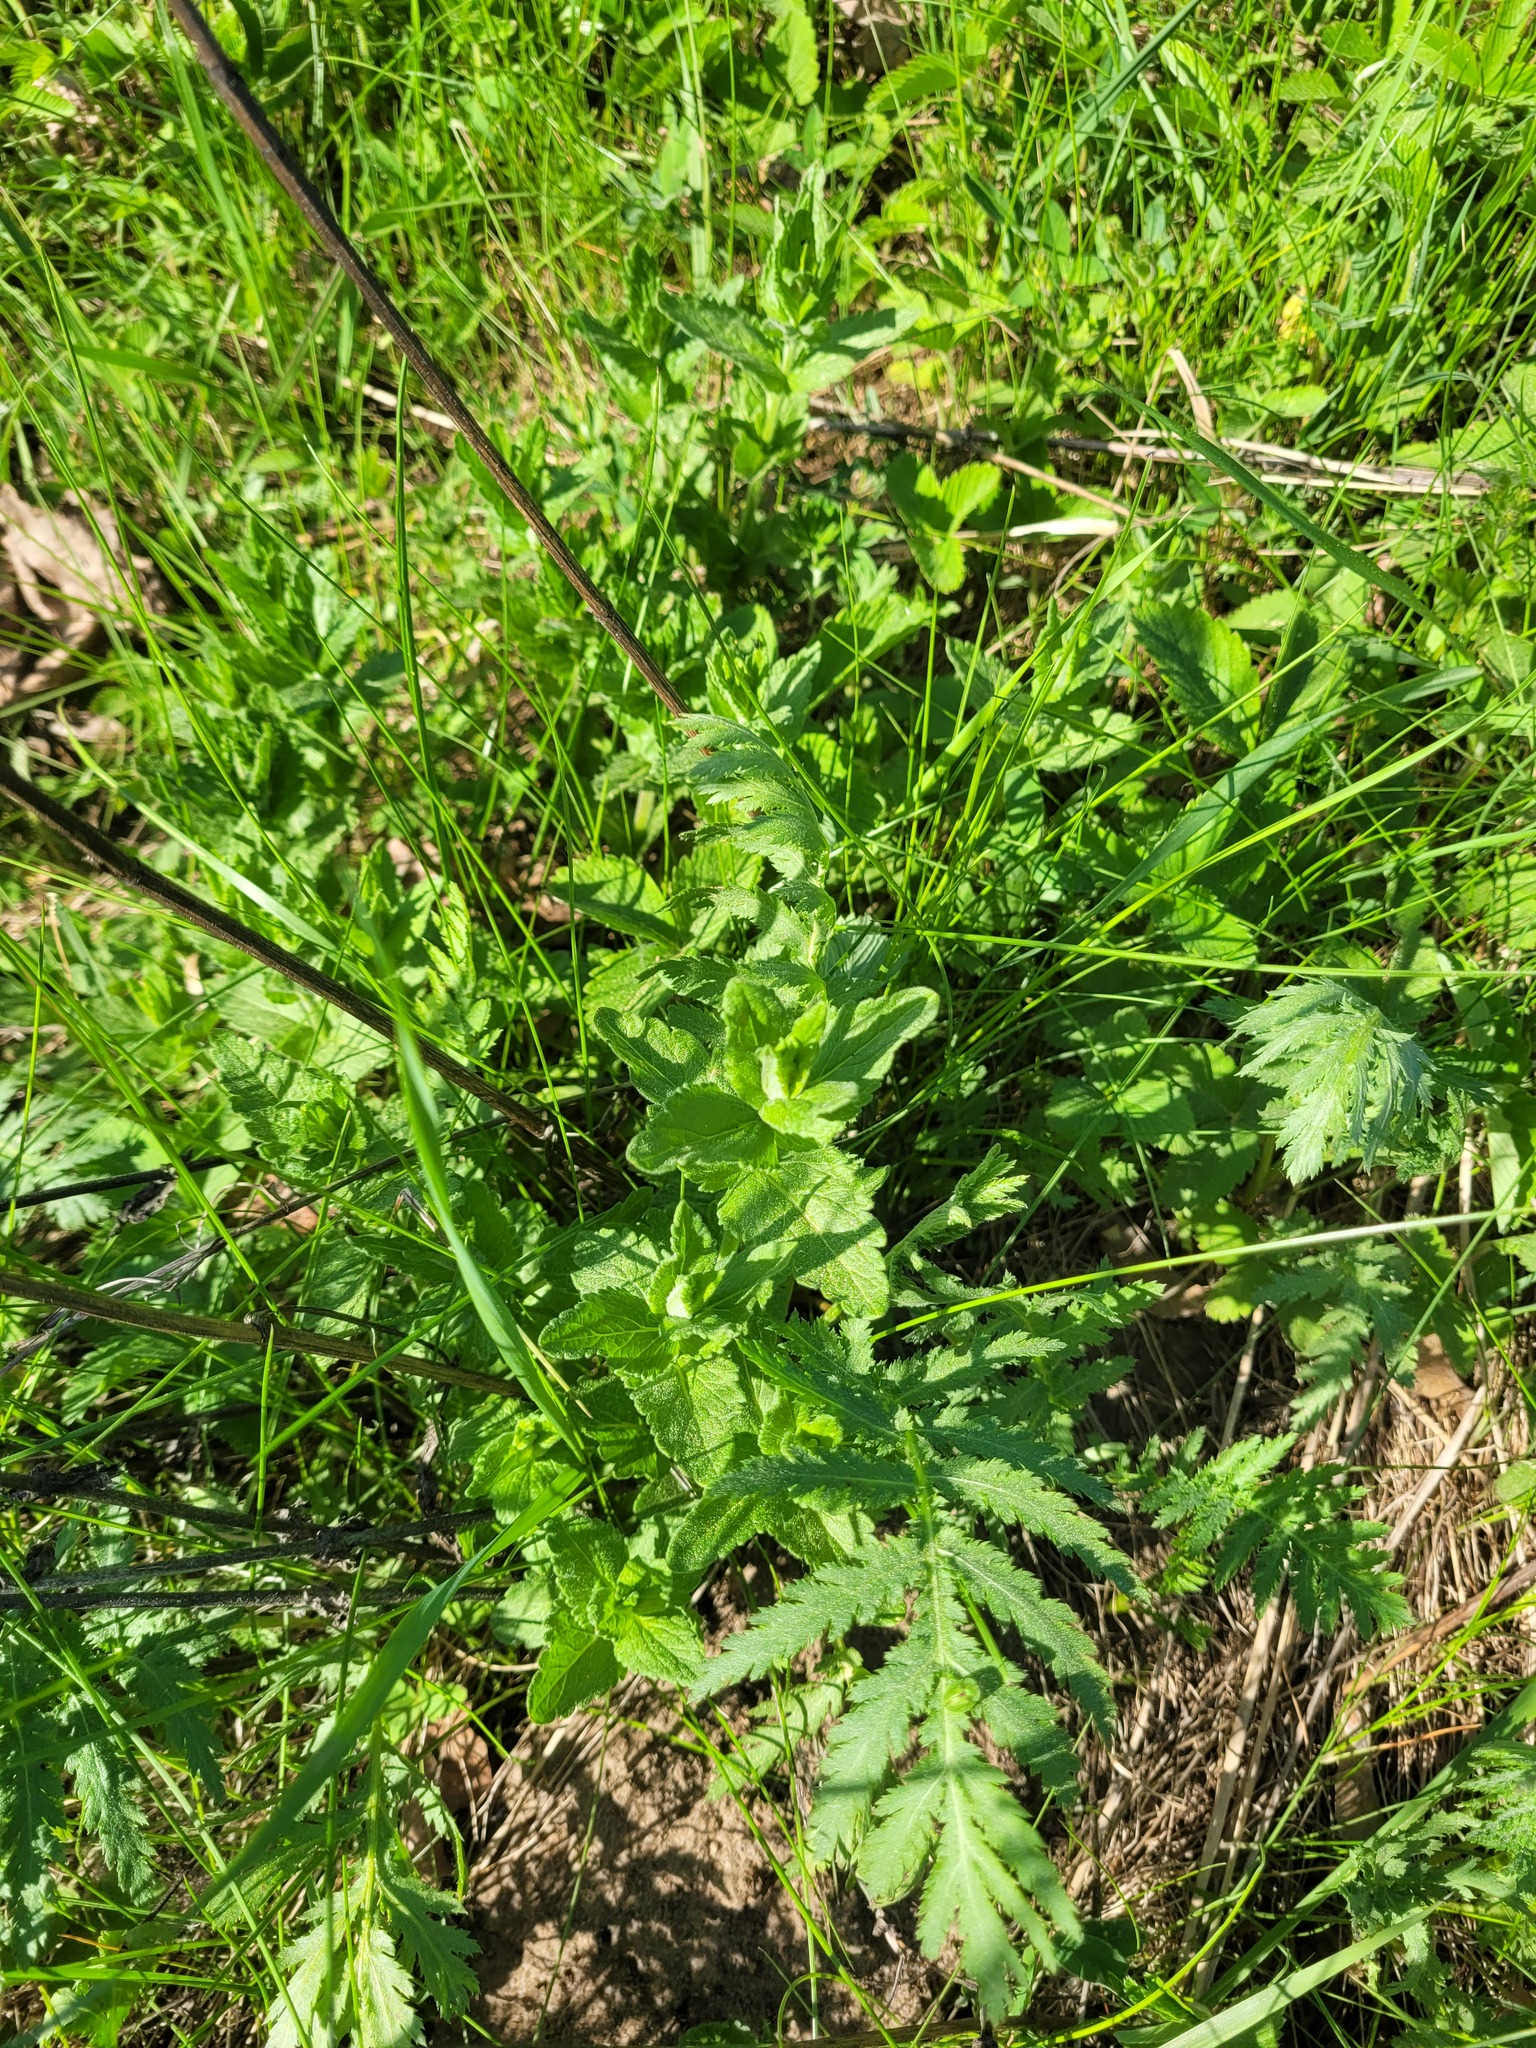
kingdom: Plantae
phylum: Tracheophyta
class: Magnoliopsida
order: Lamiales
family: Plantaginaceae
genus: Veronica
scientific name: Veronica teucrium
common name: Large speedwell
